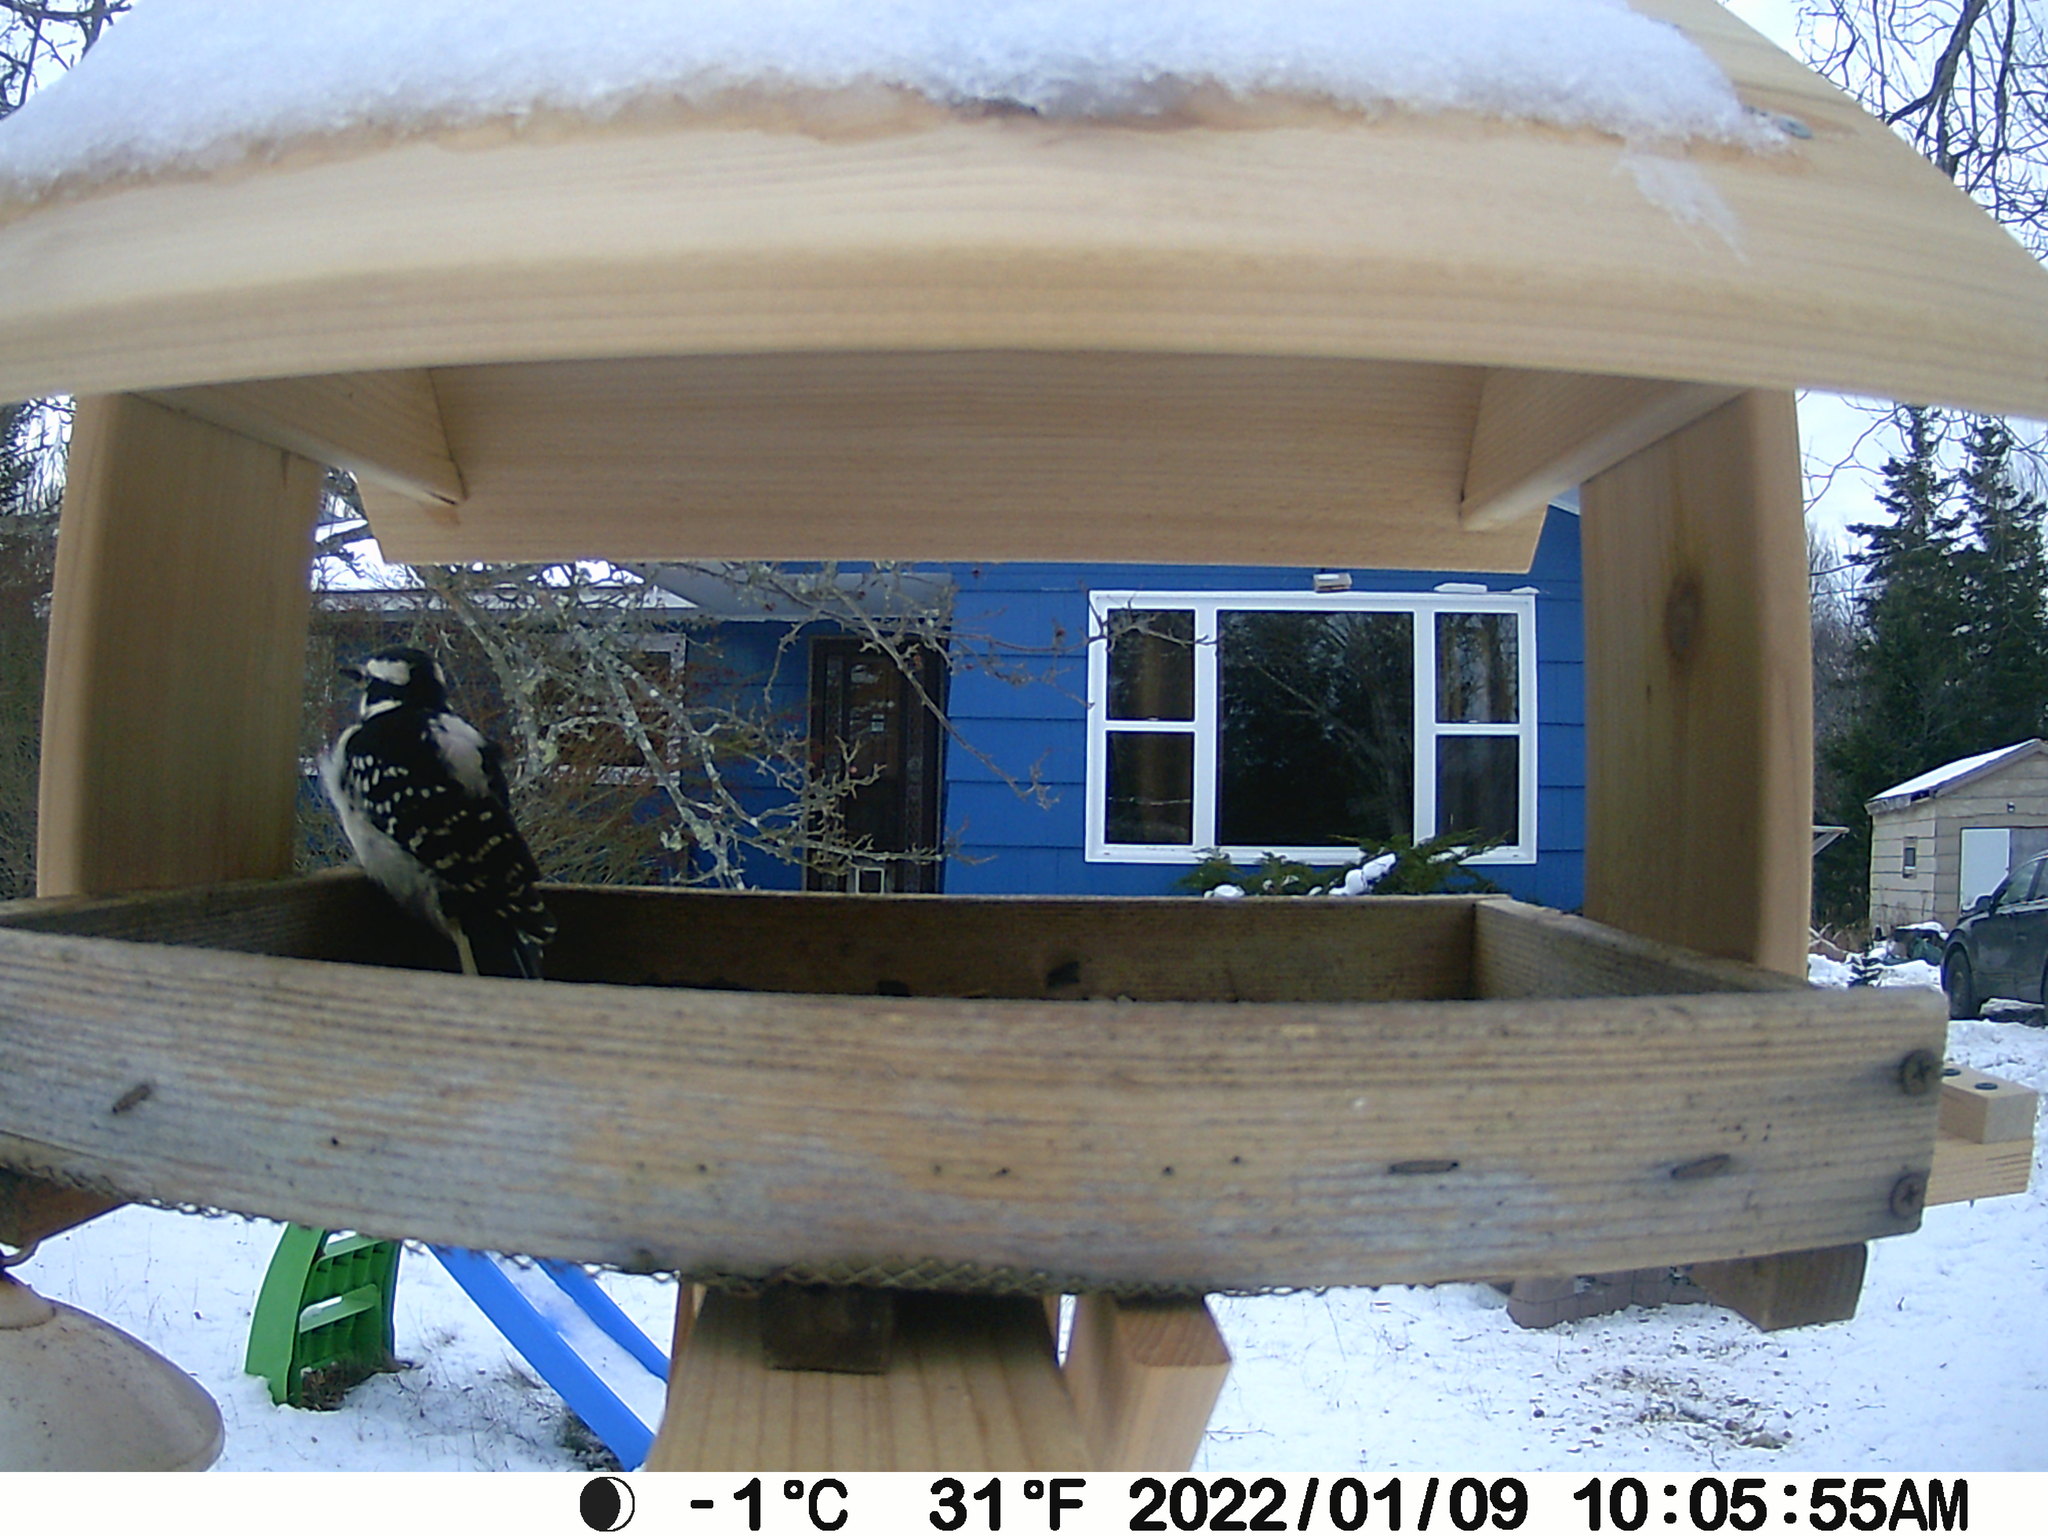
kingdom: Animalia
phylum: Chordata
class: Aves
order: Piciformes
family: Picidae
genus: Leuconotopicus
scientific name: Leuconotopicus villosus
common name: Hairy woodpecker
